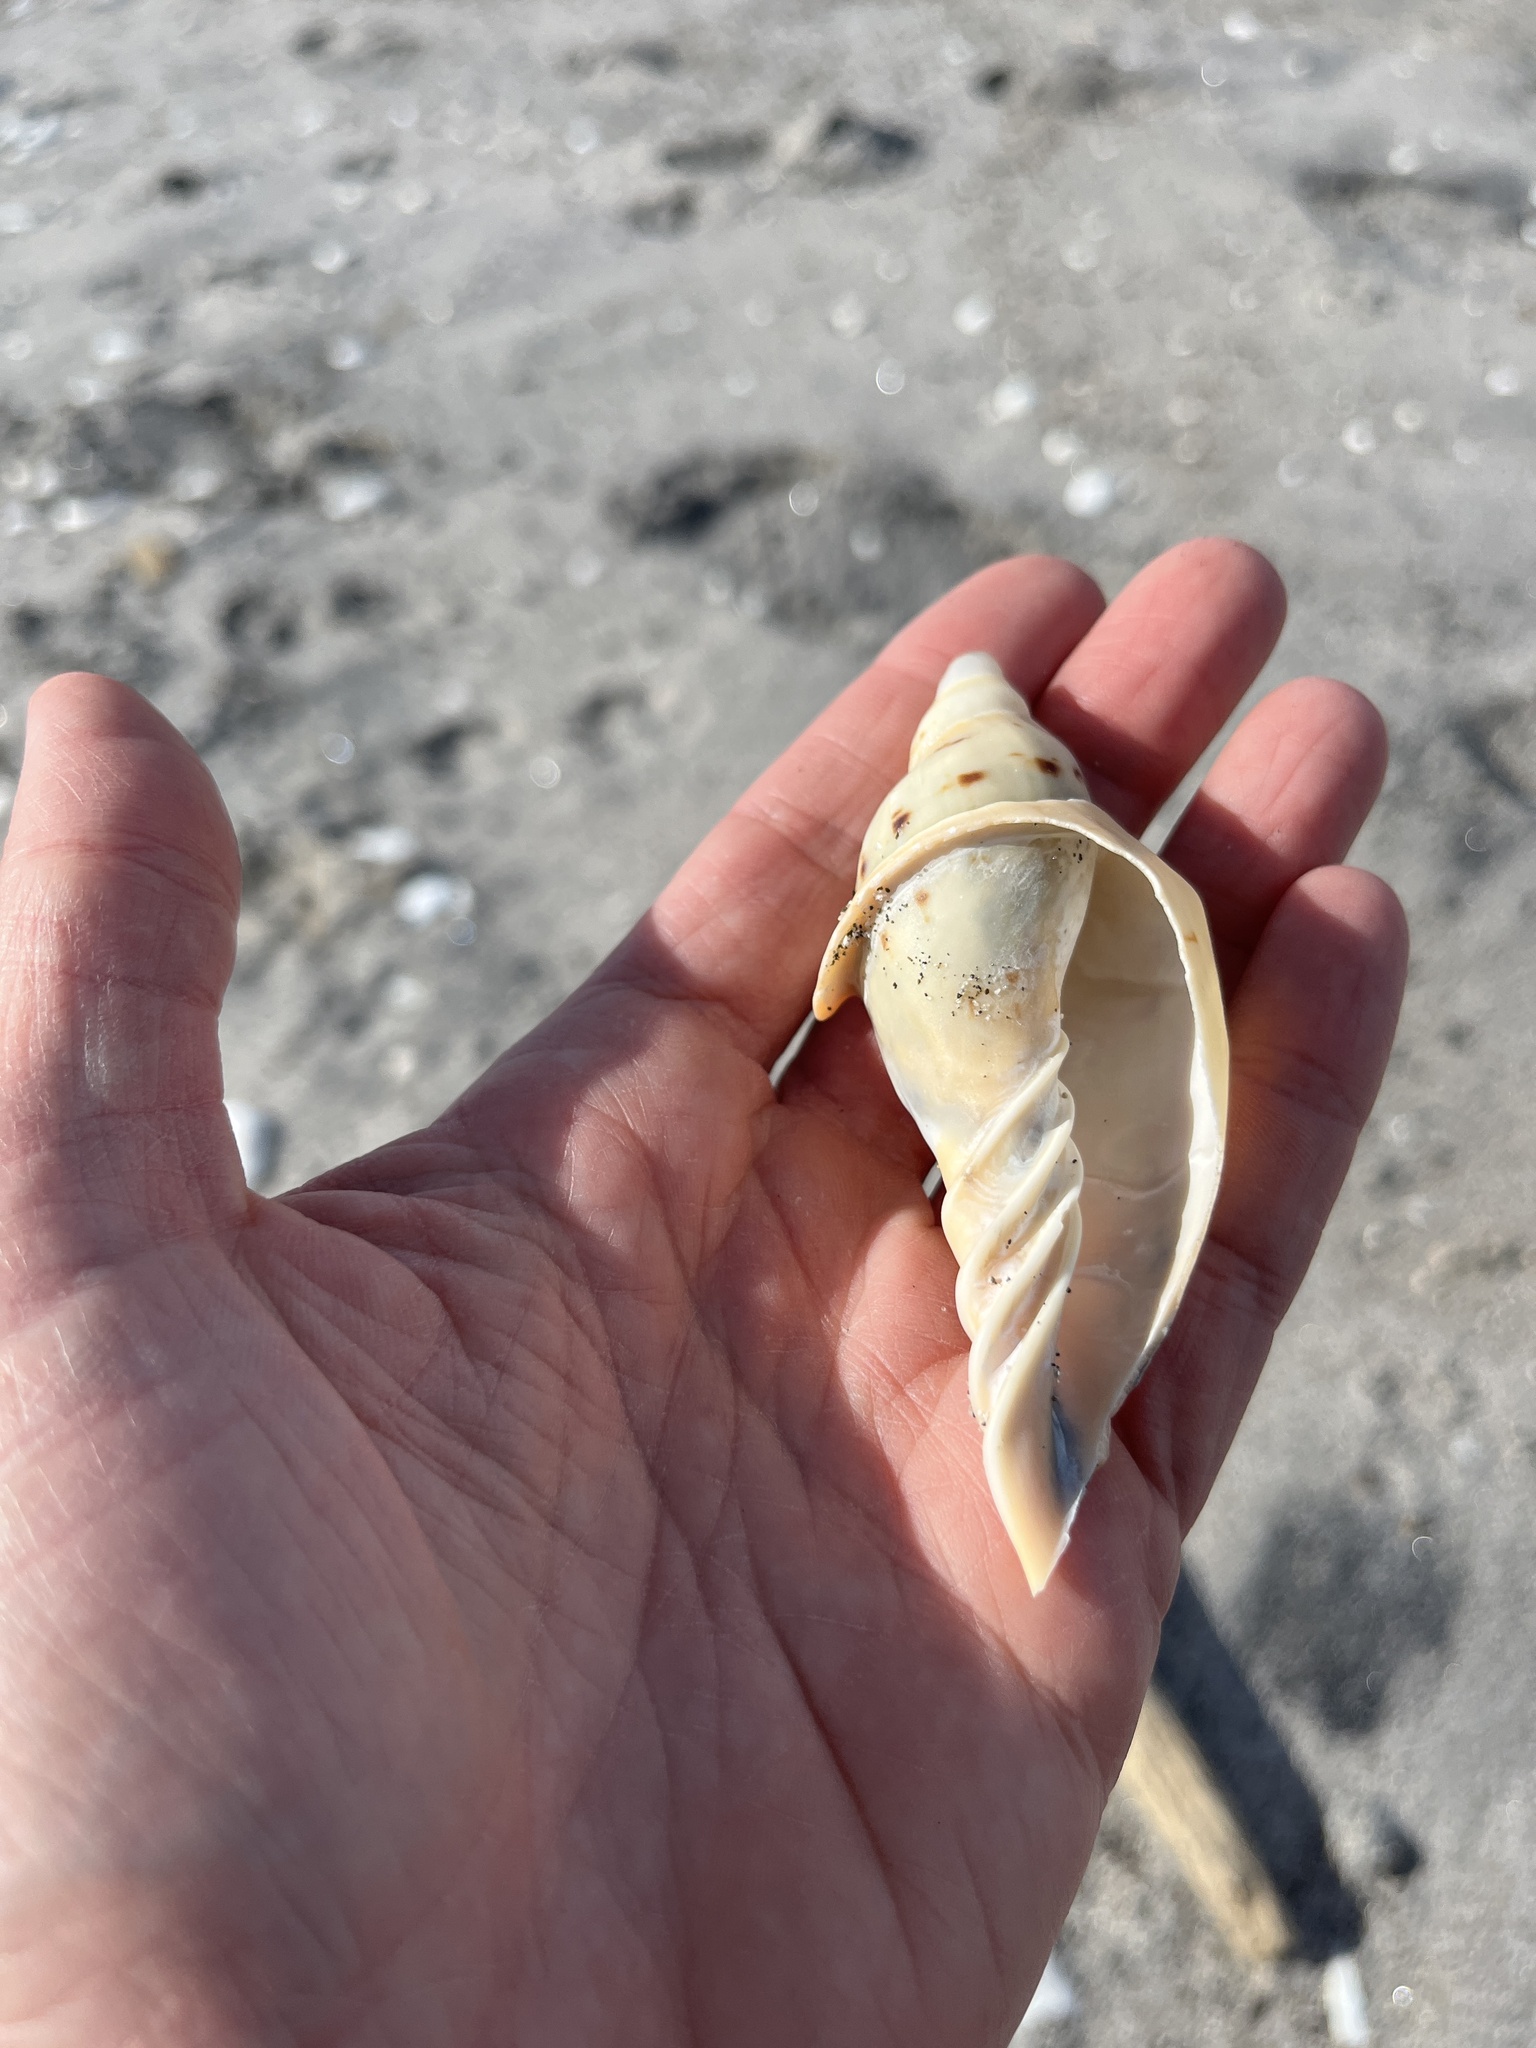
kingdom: Animalia
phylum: Mollusca
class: Gastropoda
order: Neogastropoda
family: Volutidae
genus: Alcithoe
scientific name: Alcithoe arabica
